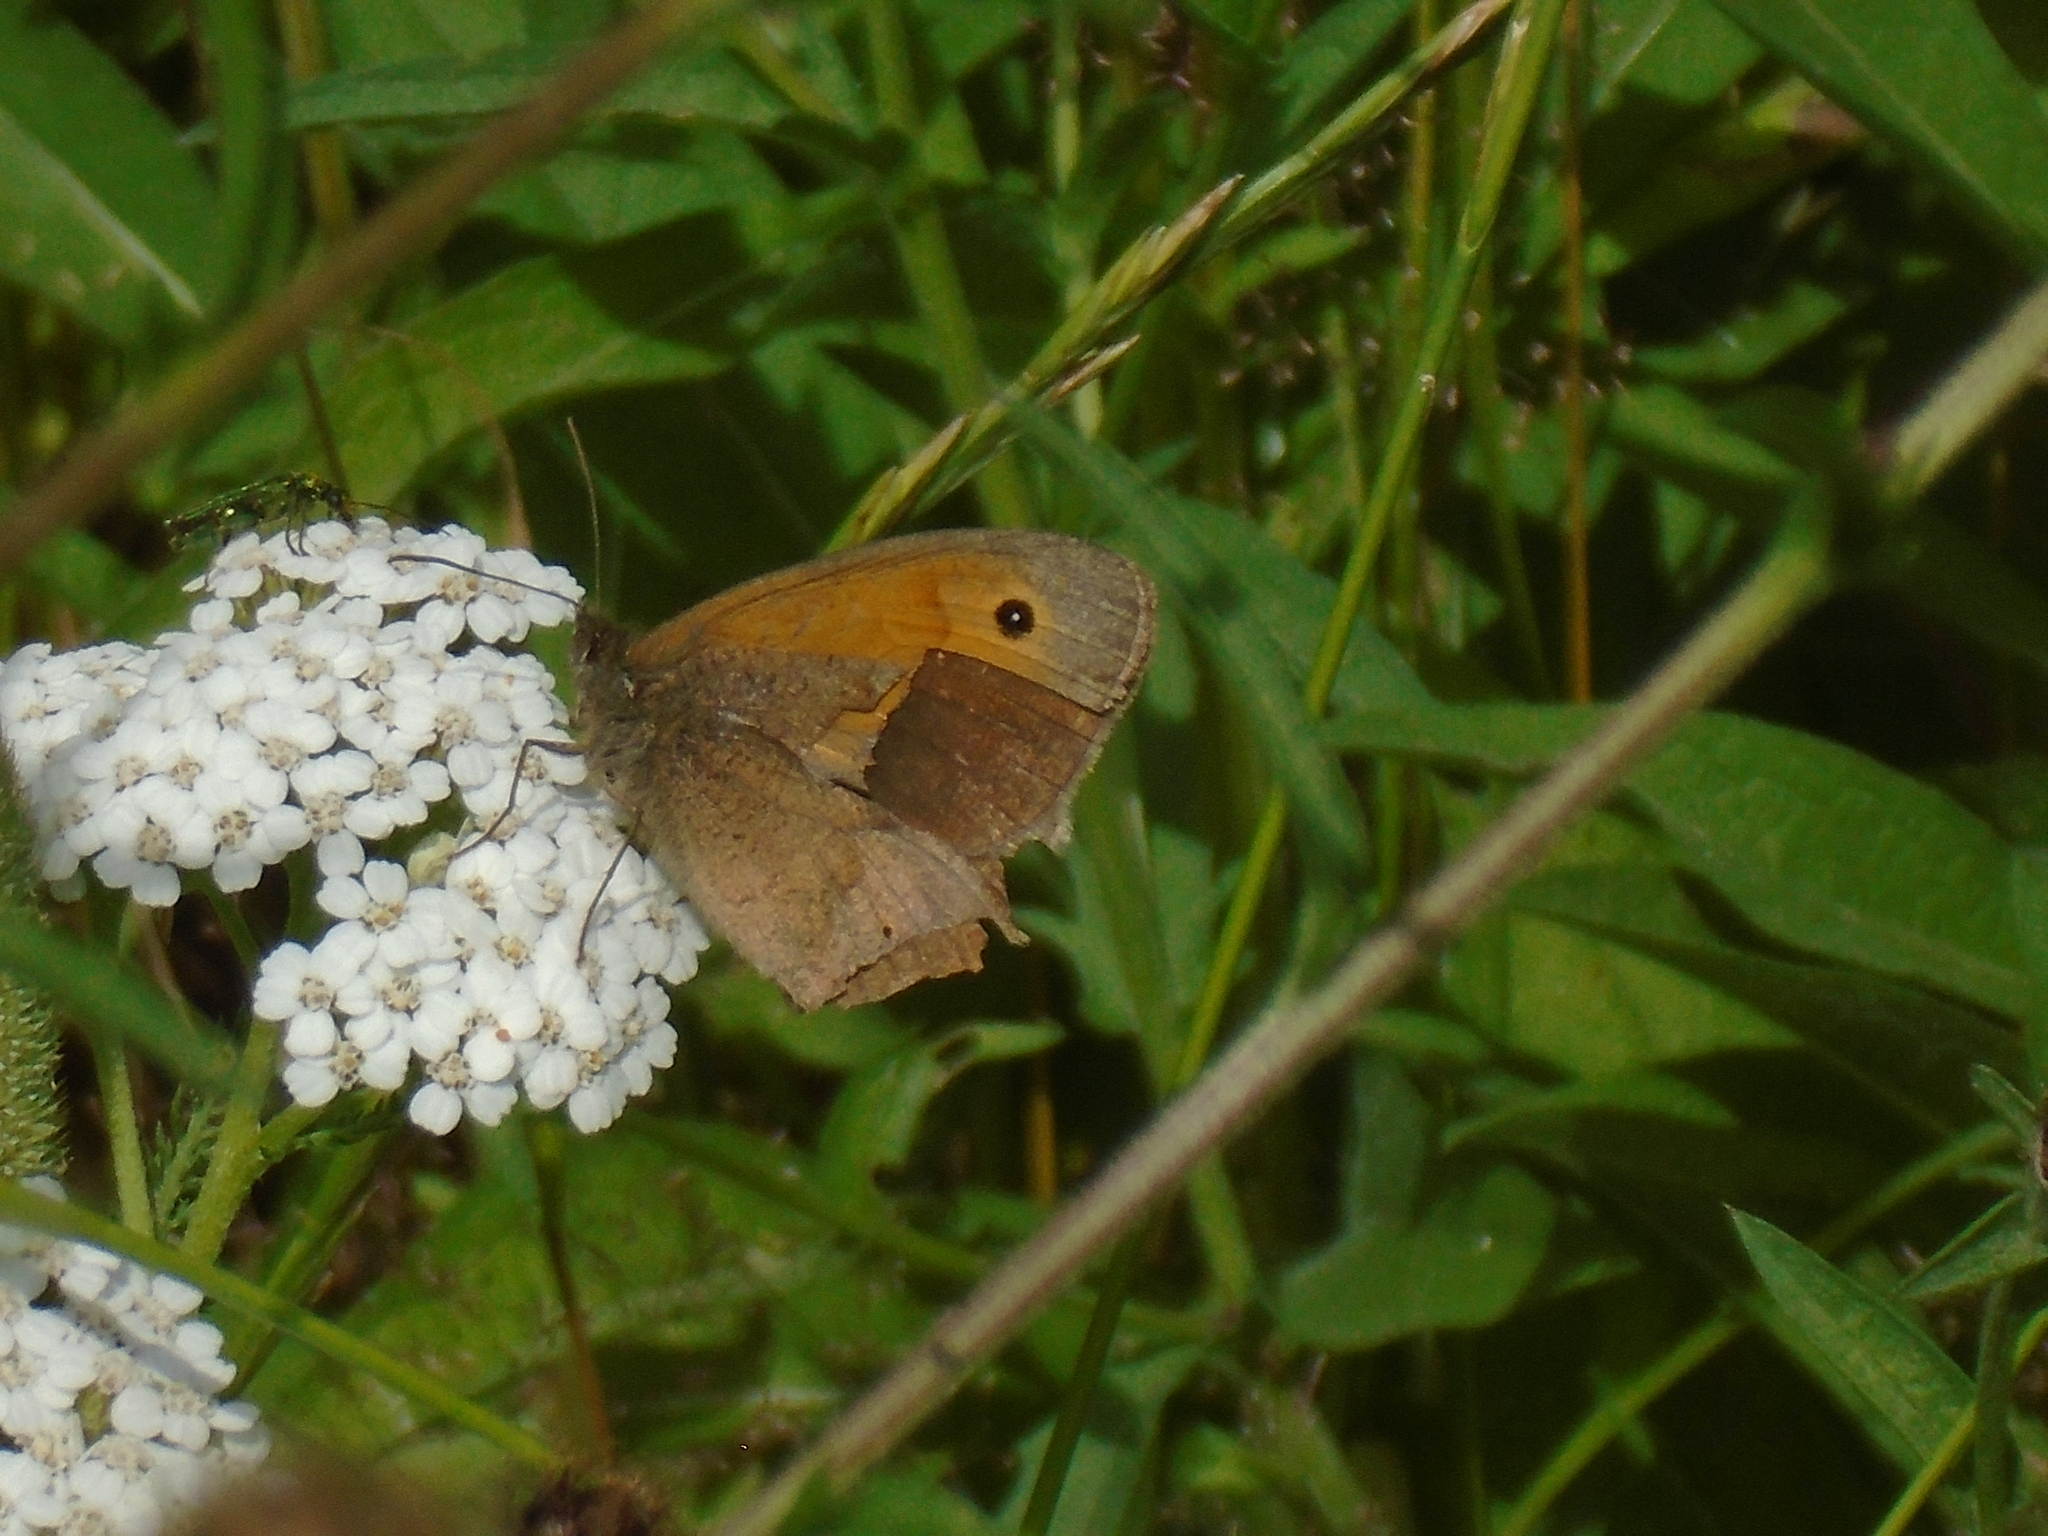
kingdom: Animalia
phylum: Arthropoda
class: Insecta
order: Lepidoptera
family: Nymphalidae
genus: Maniola
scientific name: Maniola jurtina
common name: Meadow brown
